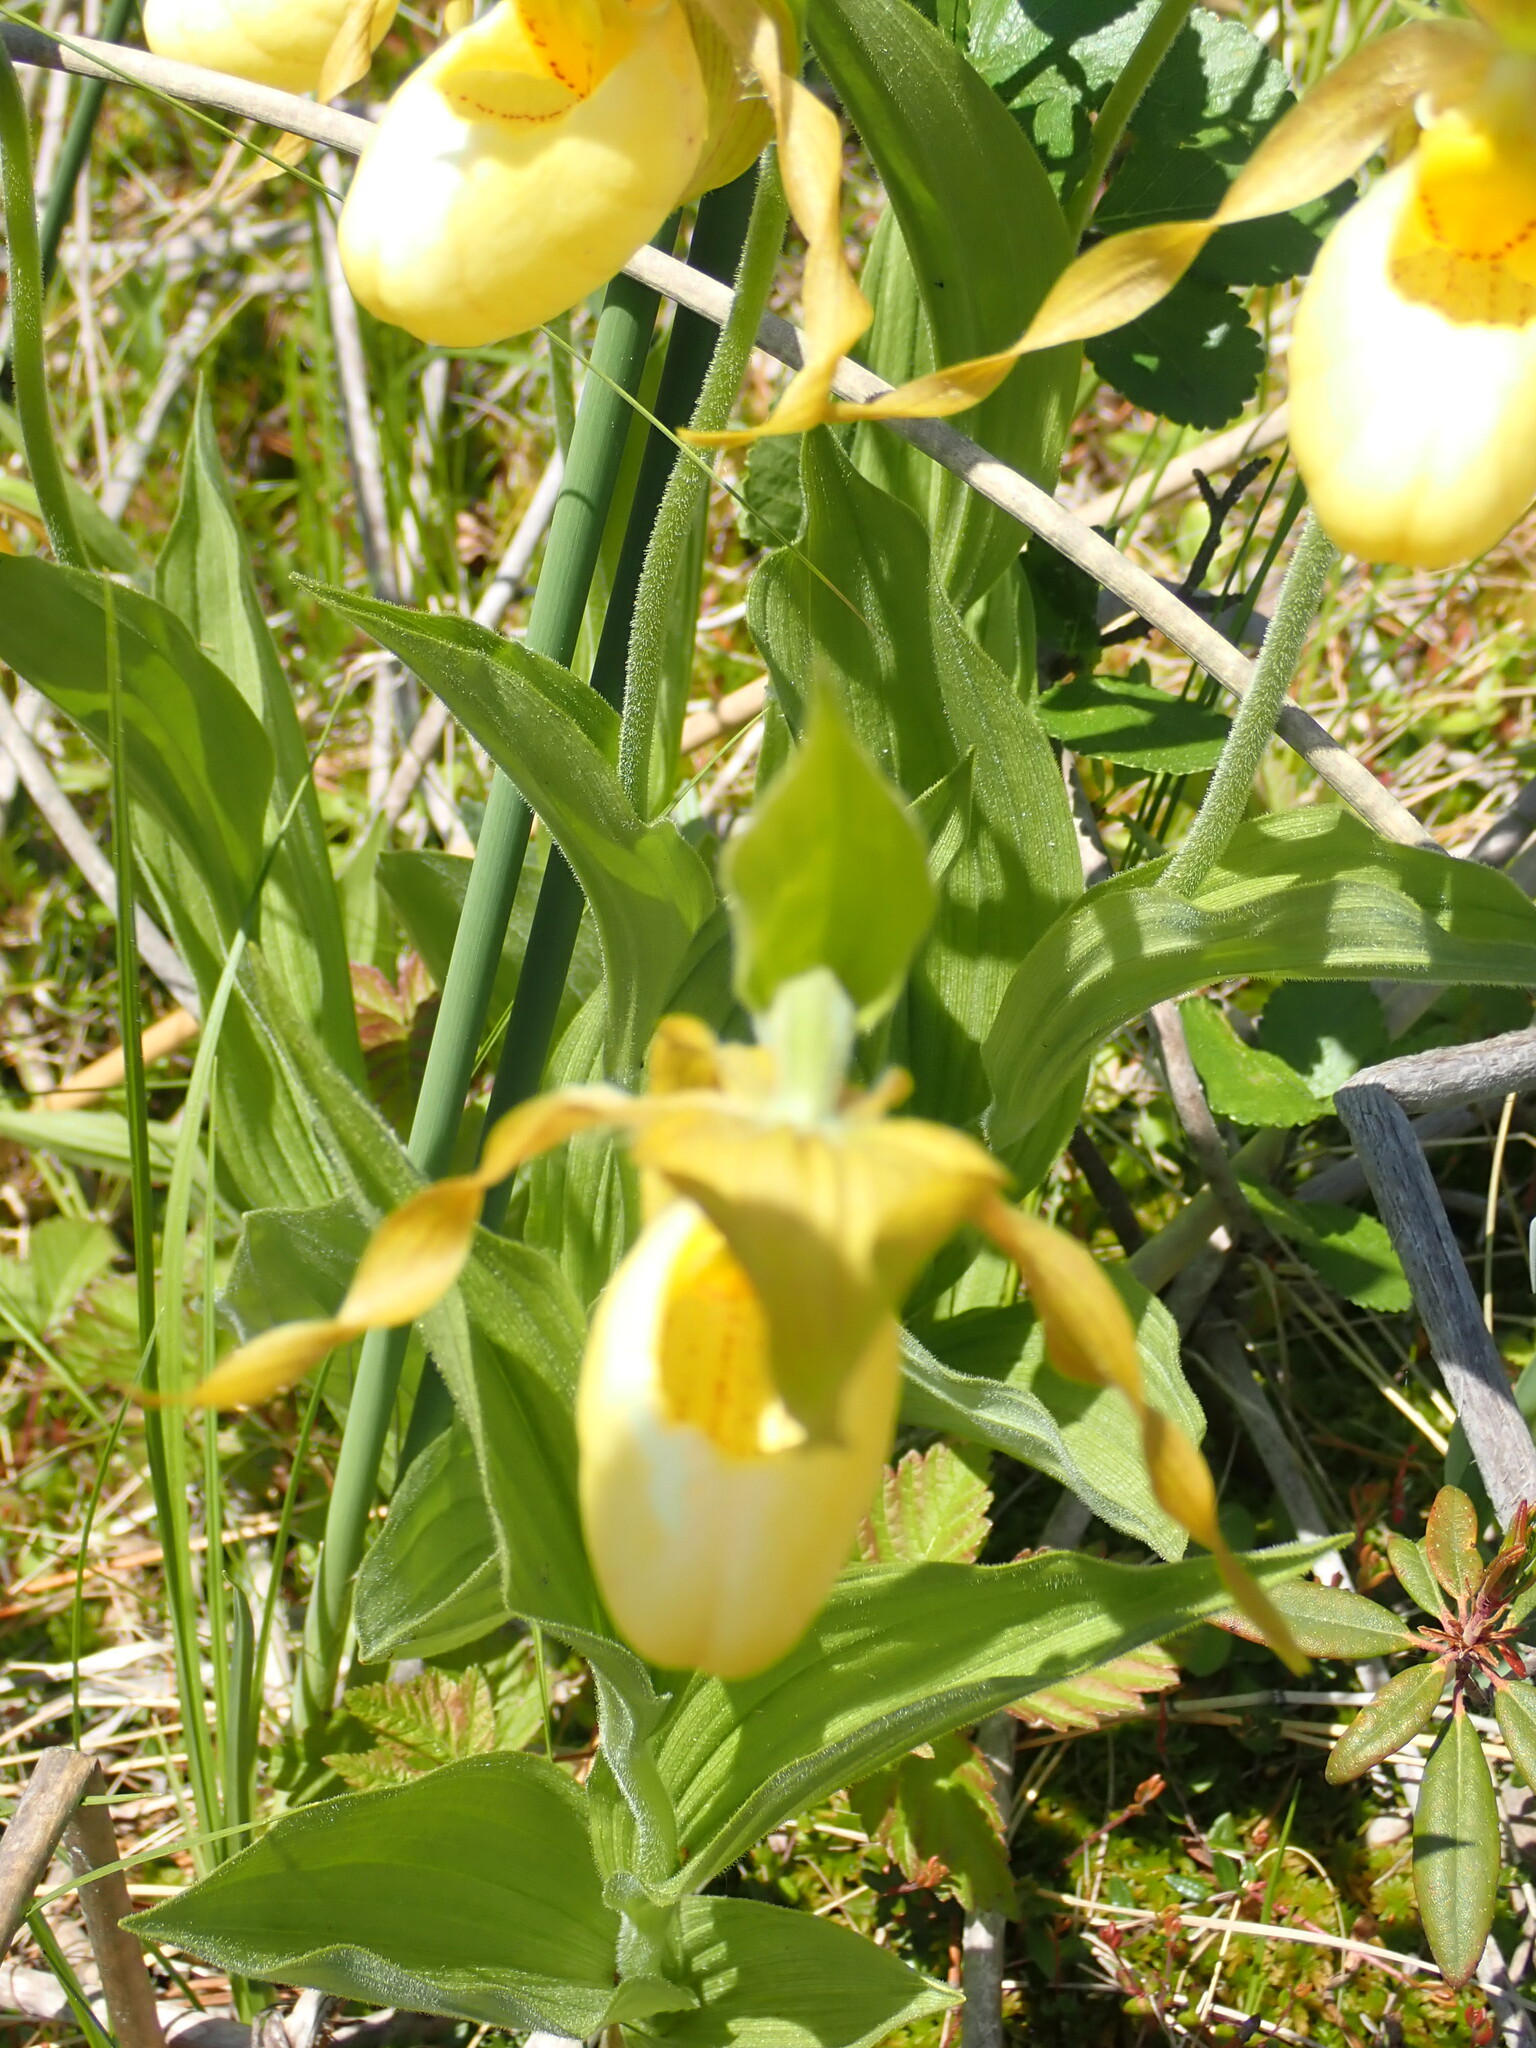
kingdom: Plantae
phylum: Tracheophyta
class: Liliopsida
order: Asparagales
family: Orchidaceae
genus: Cypripedium
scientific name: Cypripedium parviflorum
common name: American yellow lady's-slipper
